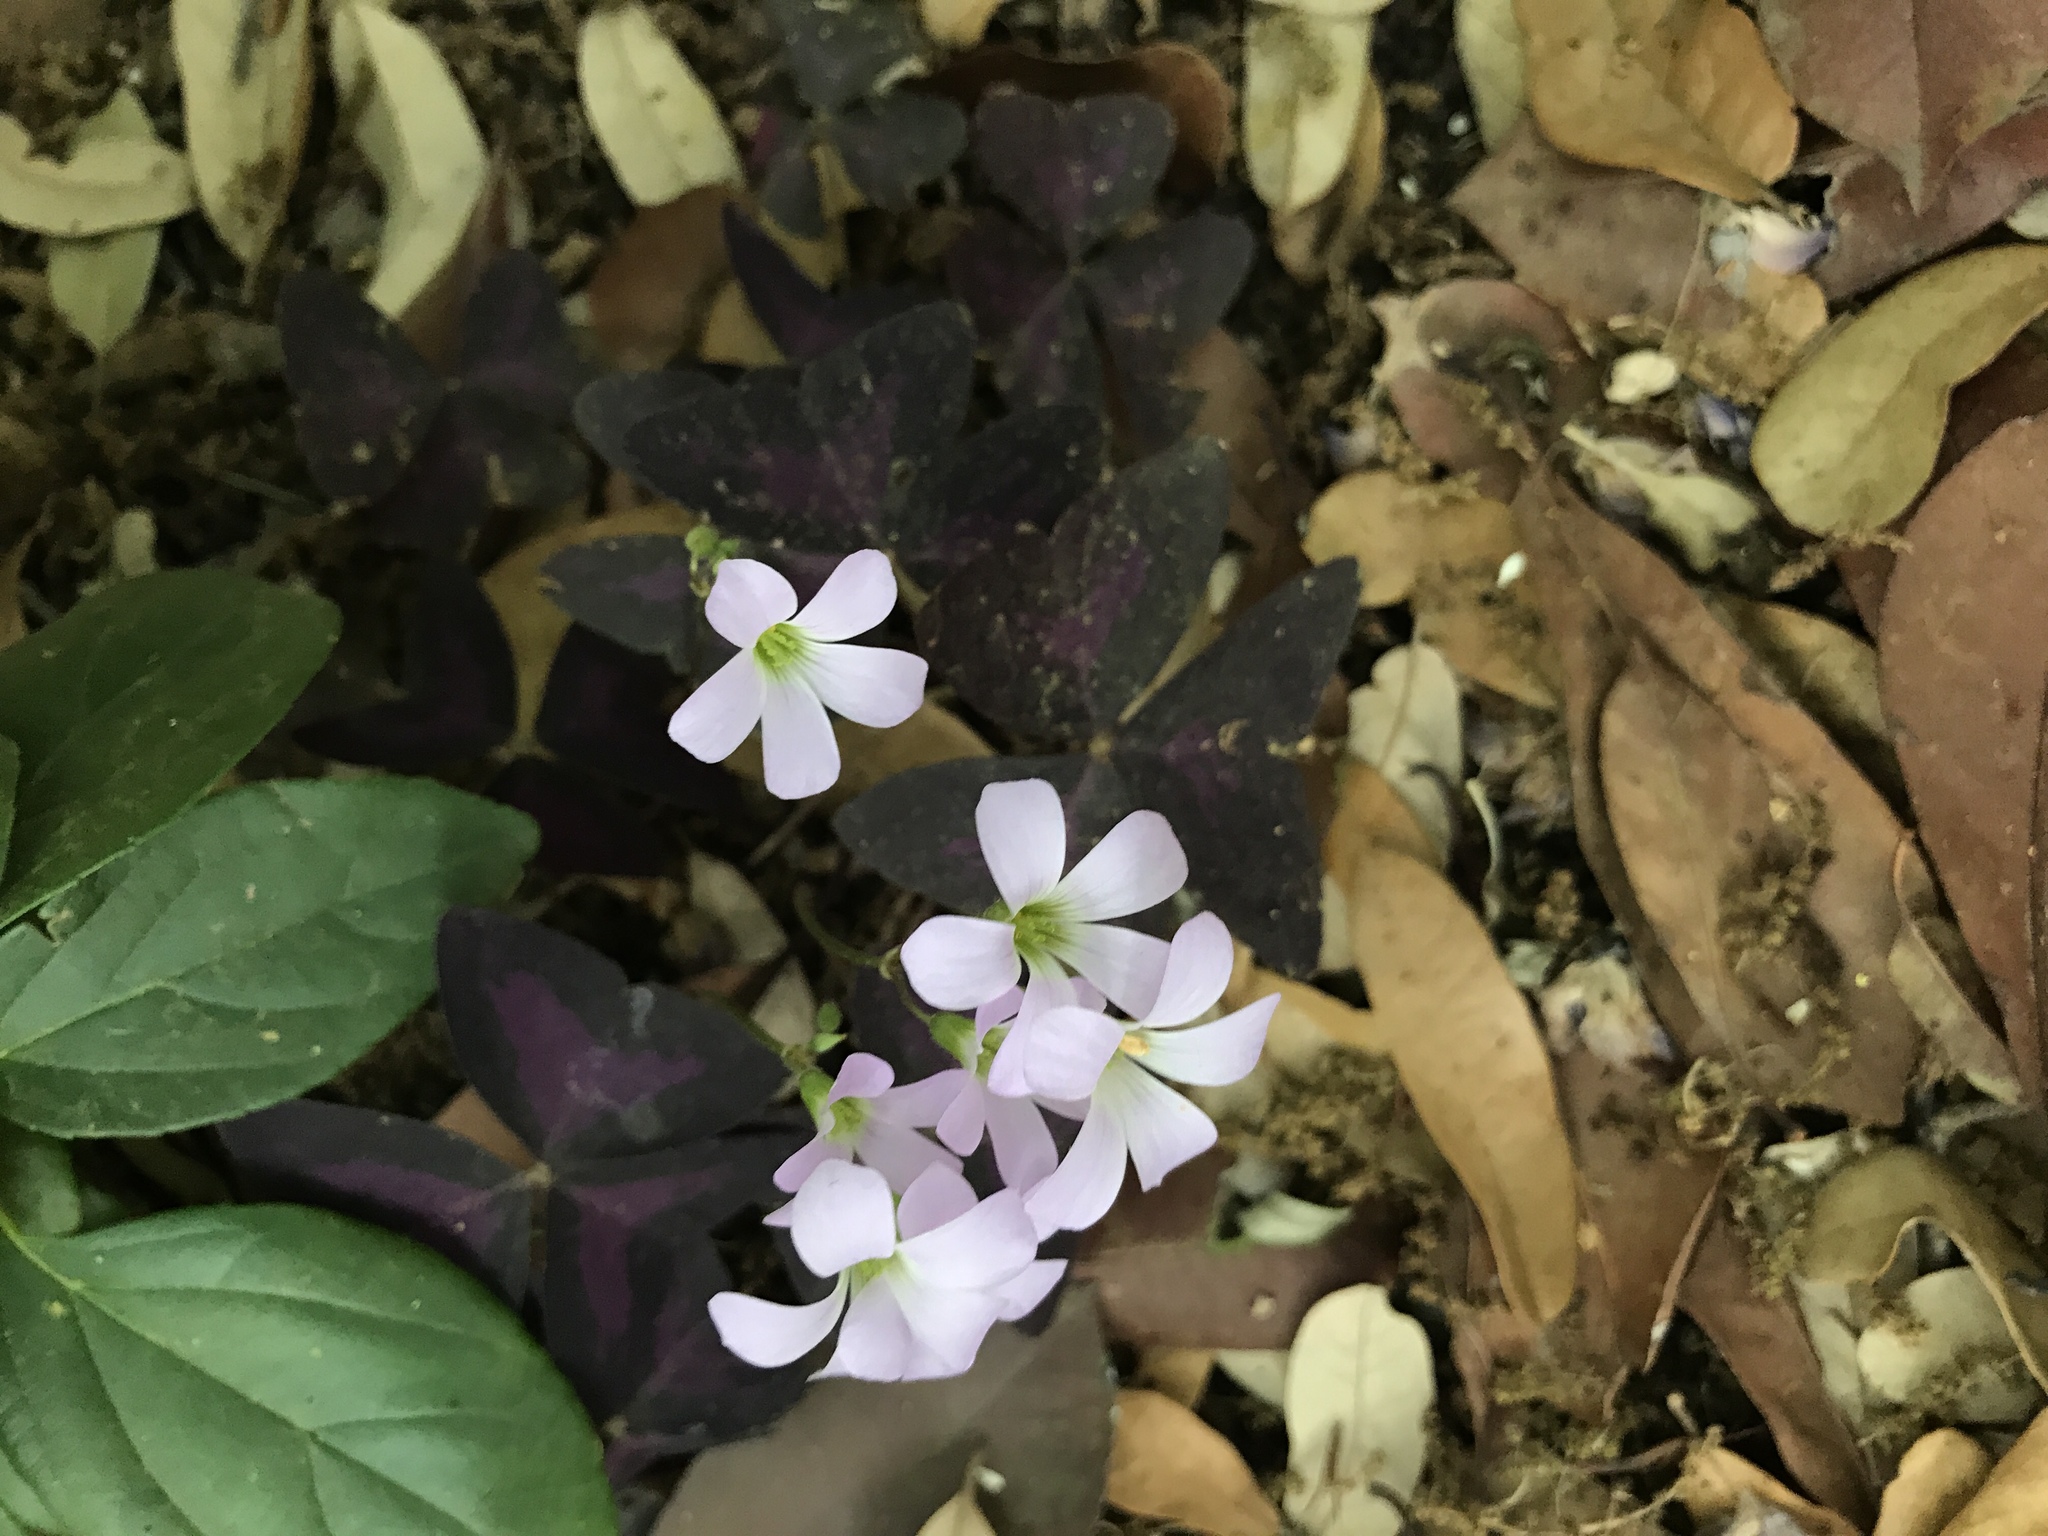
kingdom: Plantae
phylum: Tracheophyta
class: Magnoliopsida
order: Oxalidales
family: Oxalidaceae
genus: Oxalis
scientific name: Oxalis triangularis
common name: Wood sorrel
